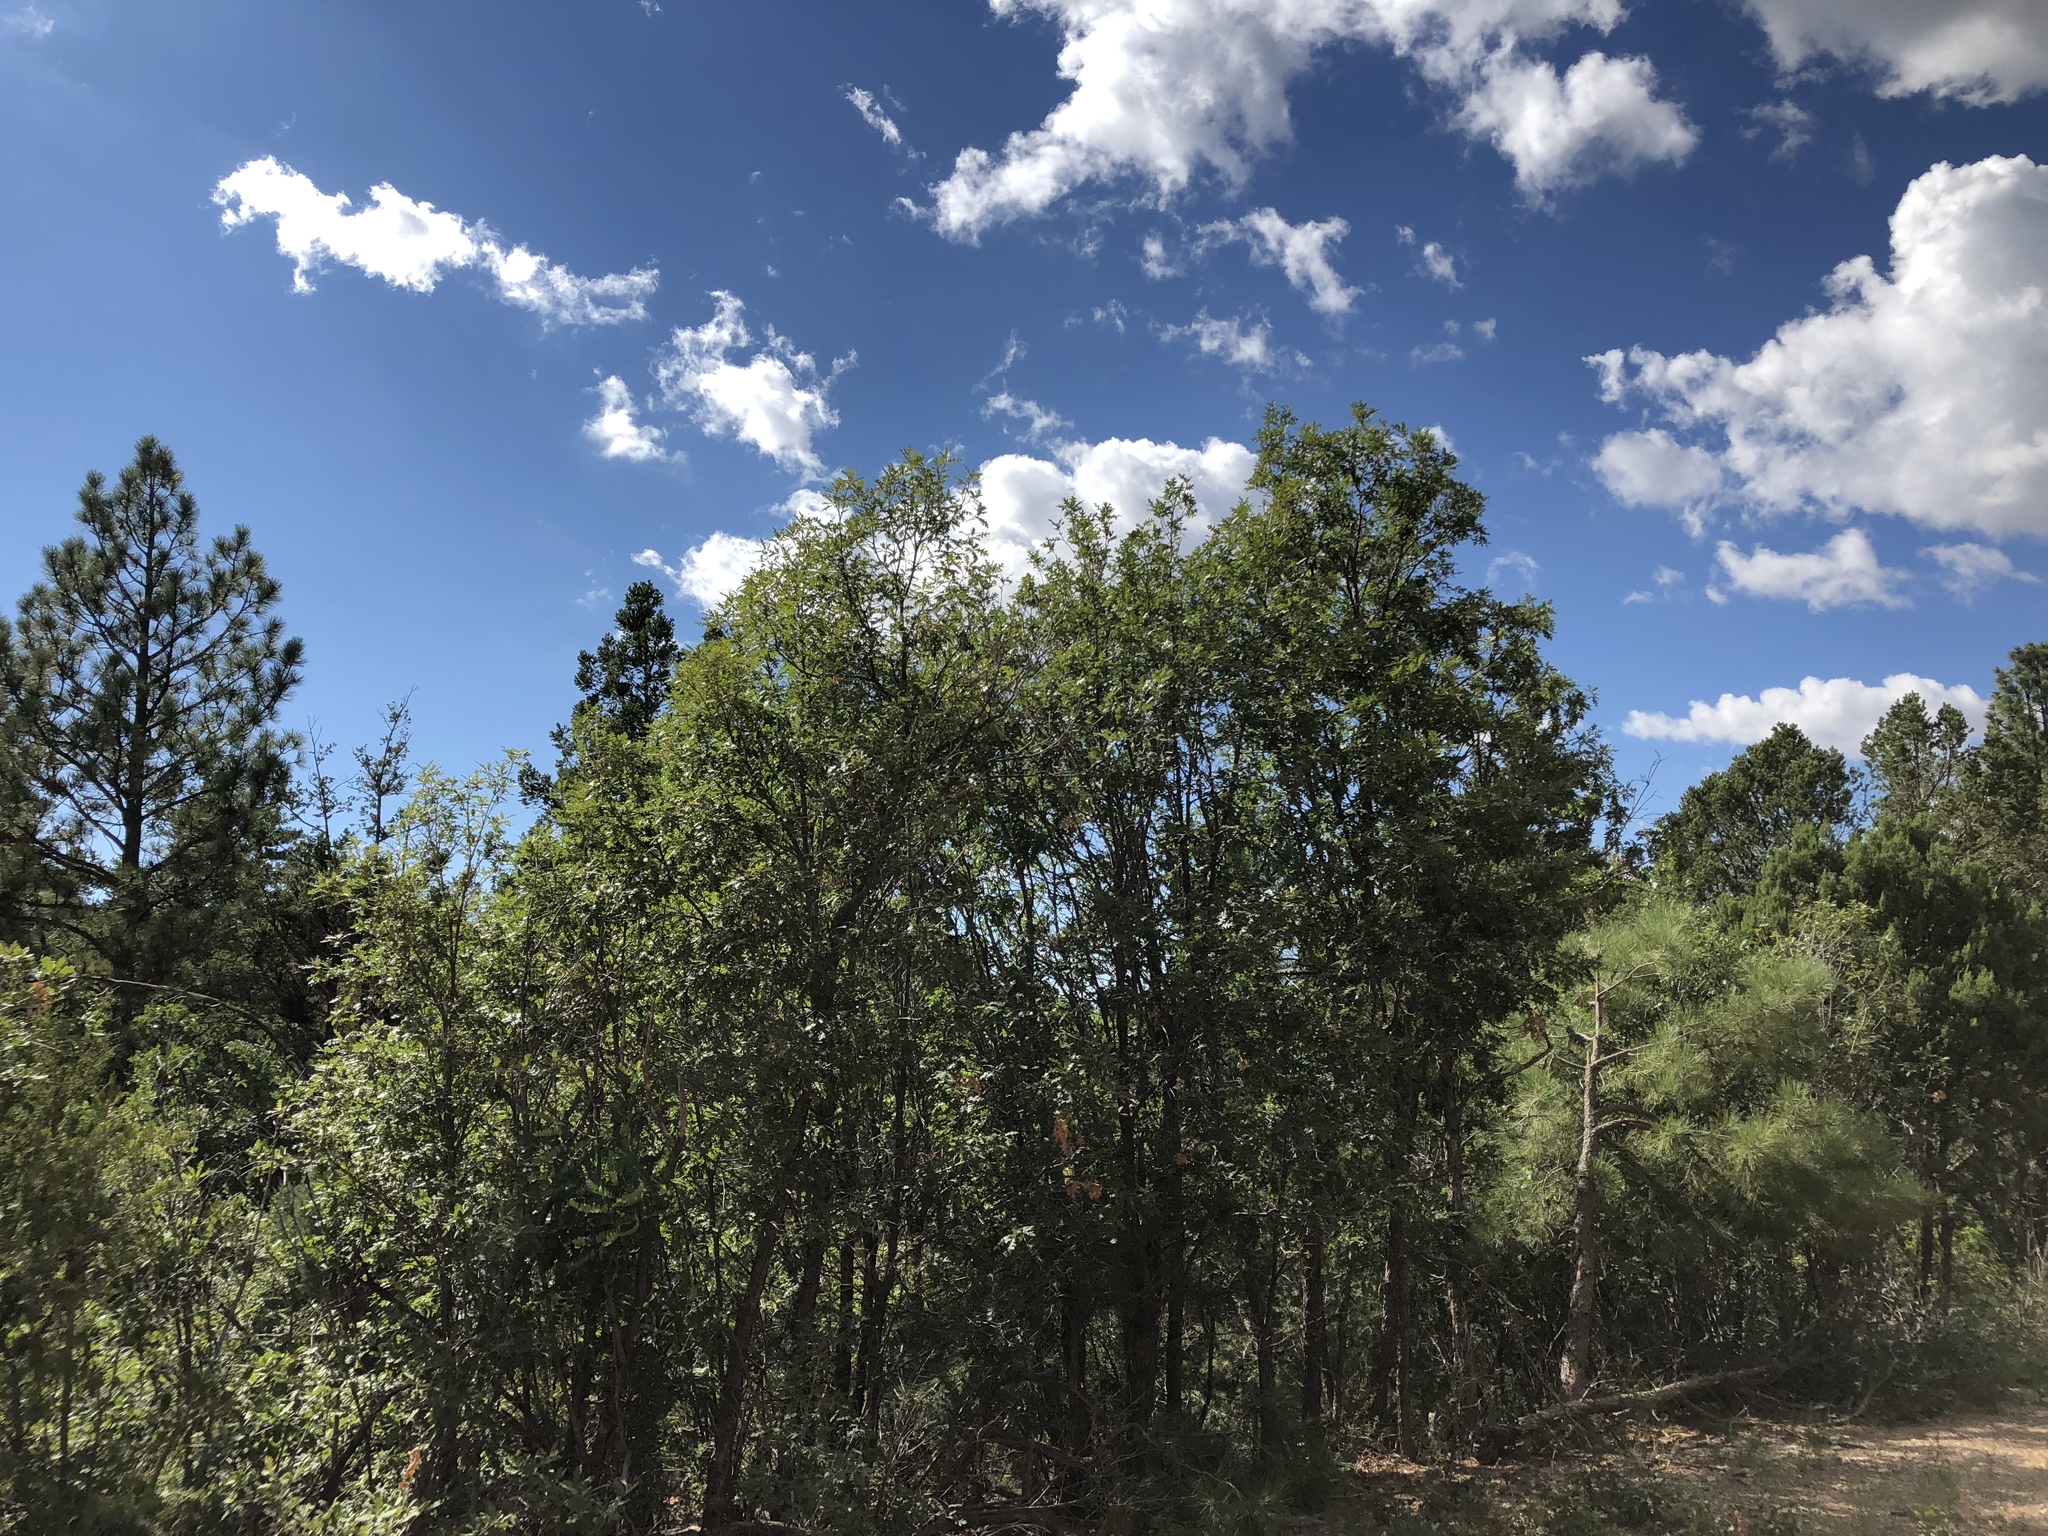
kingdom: Plantae
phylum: Tracheophyta
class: Magnoliopsida
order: Fagales
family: Fagaceae
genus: Quercus
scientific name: Quercus gambelii
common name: Gambel oak
